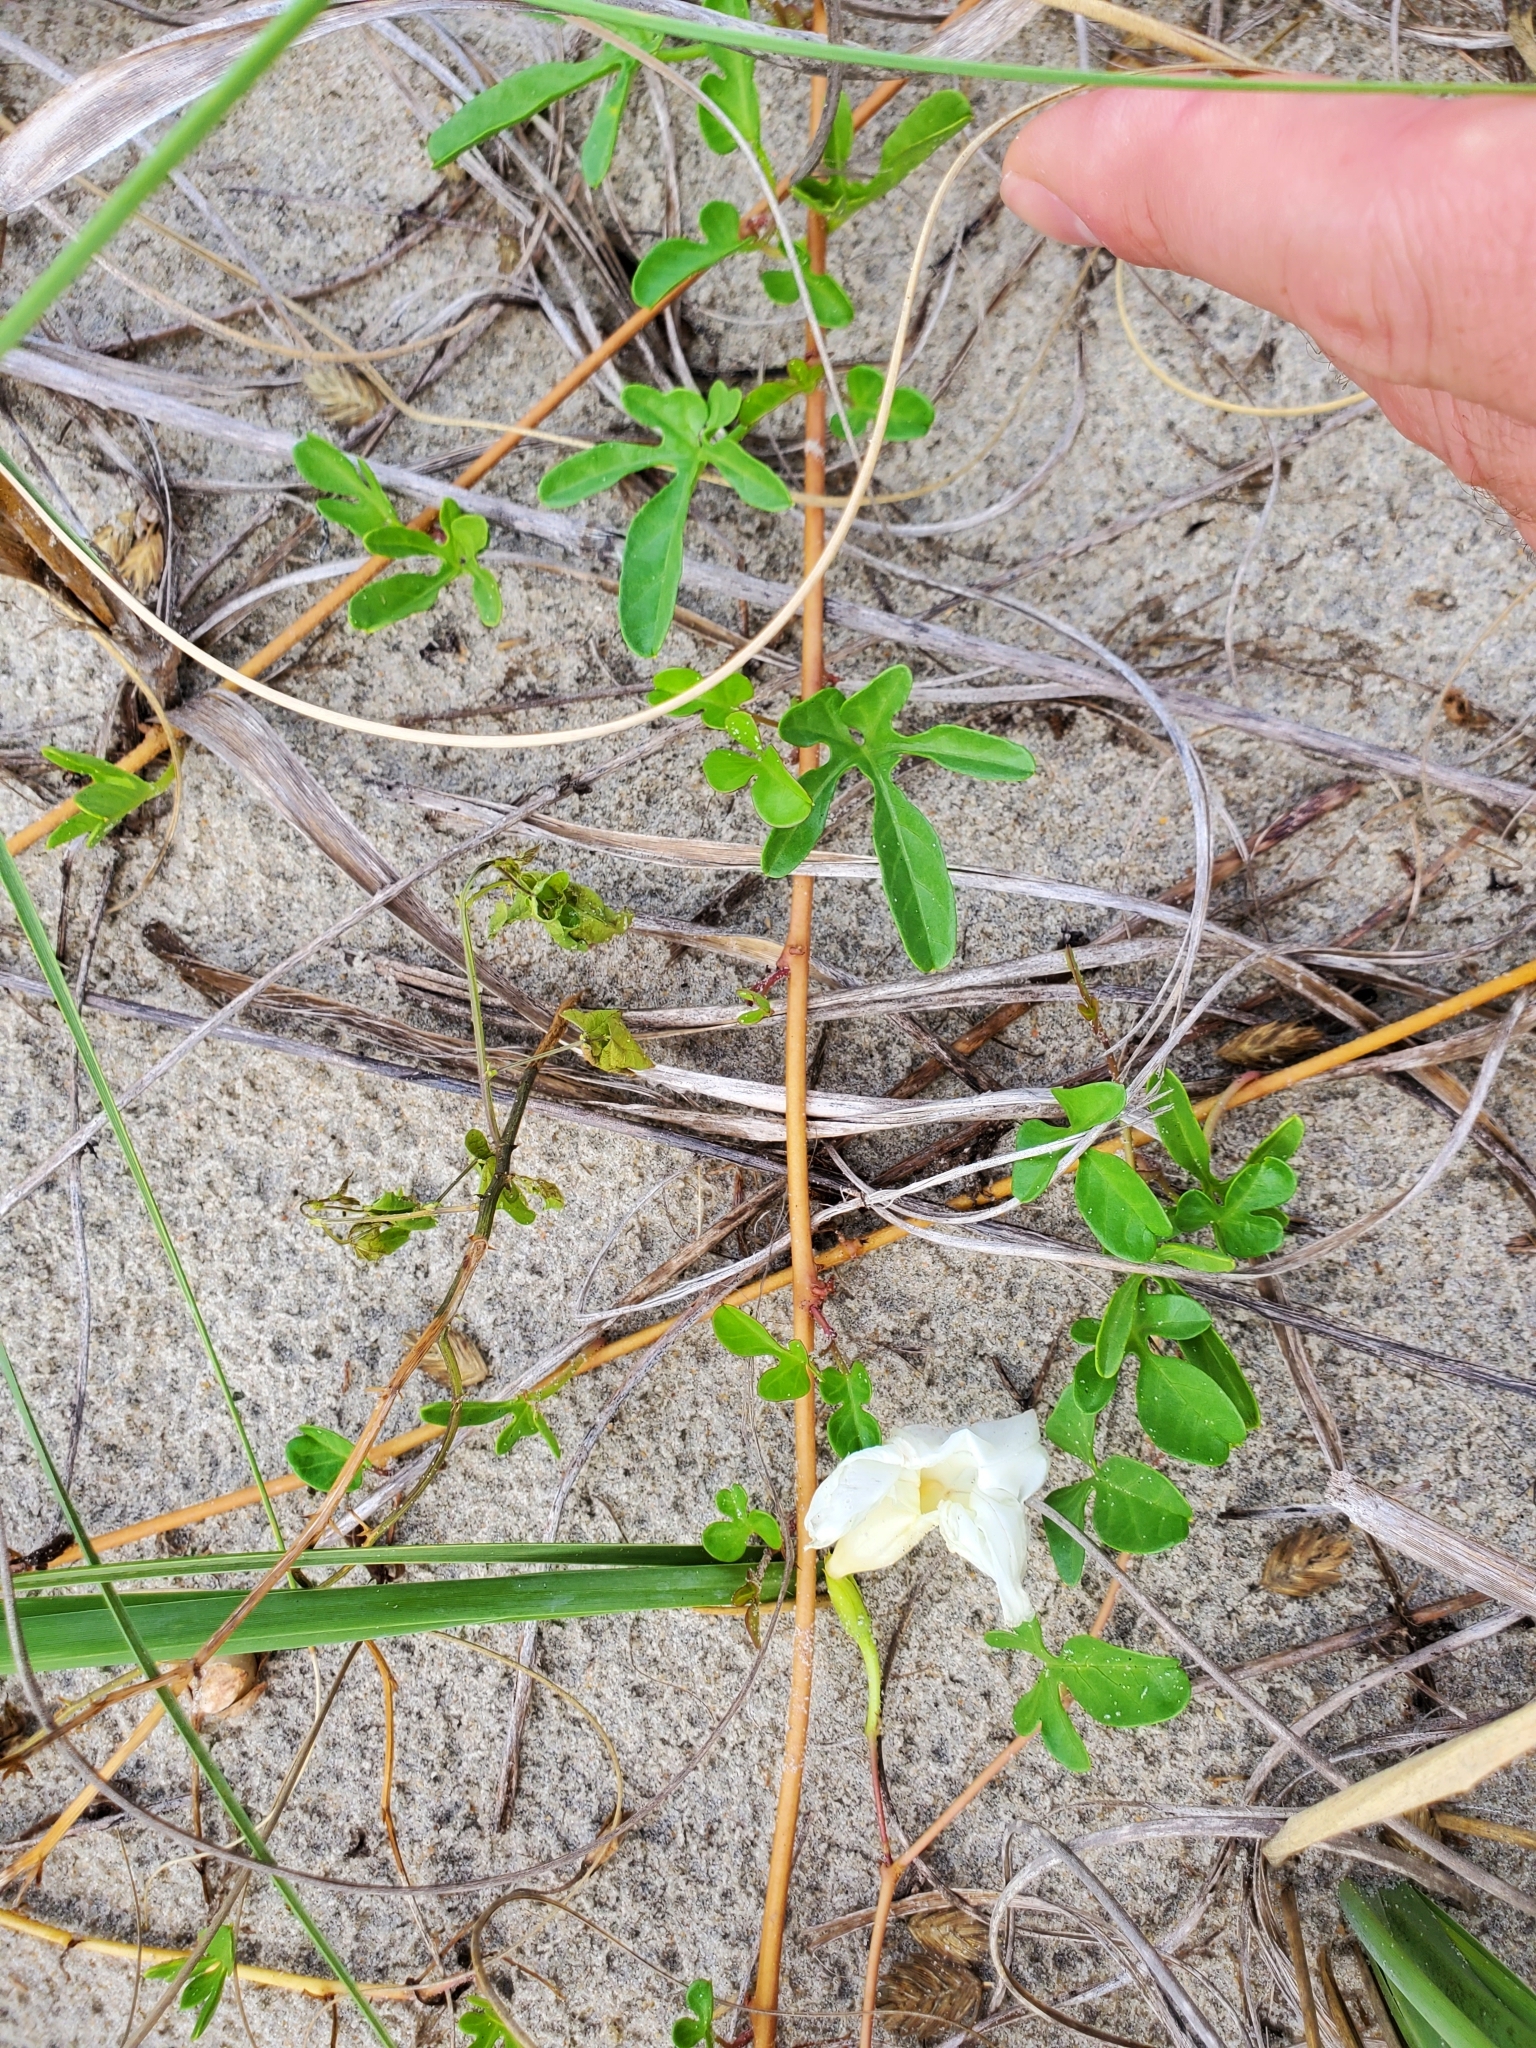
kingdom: Plantae
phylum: Tracheophyta
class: Magnoliopsida
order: Solanales
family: Convolvulaceae
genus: Ipomoea
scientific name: Ipomoea imperati
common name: Fiddle-leaf morning-glory
